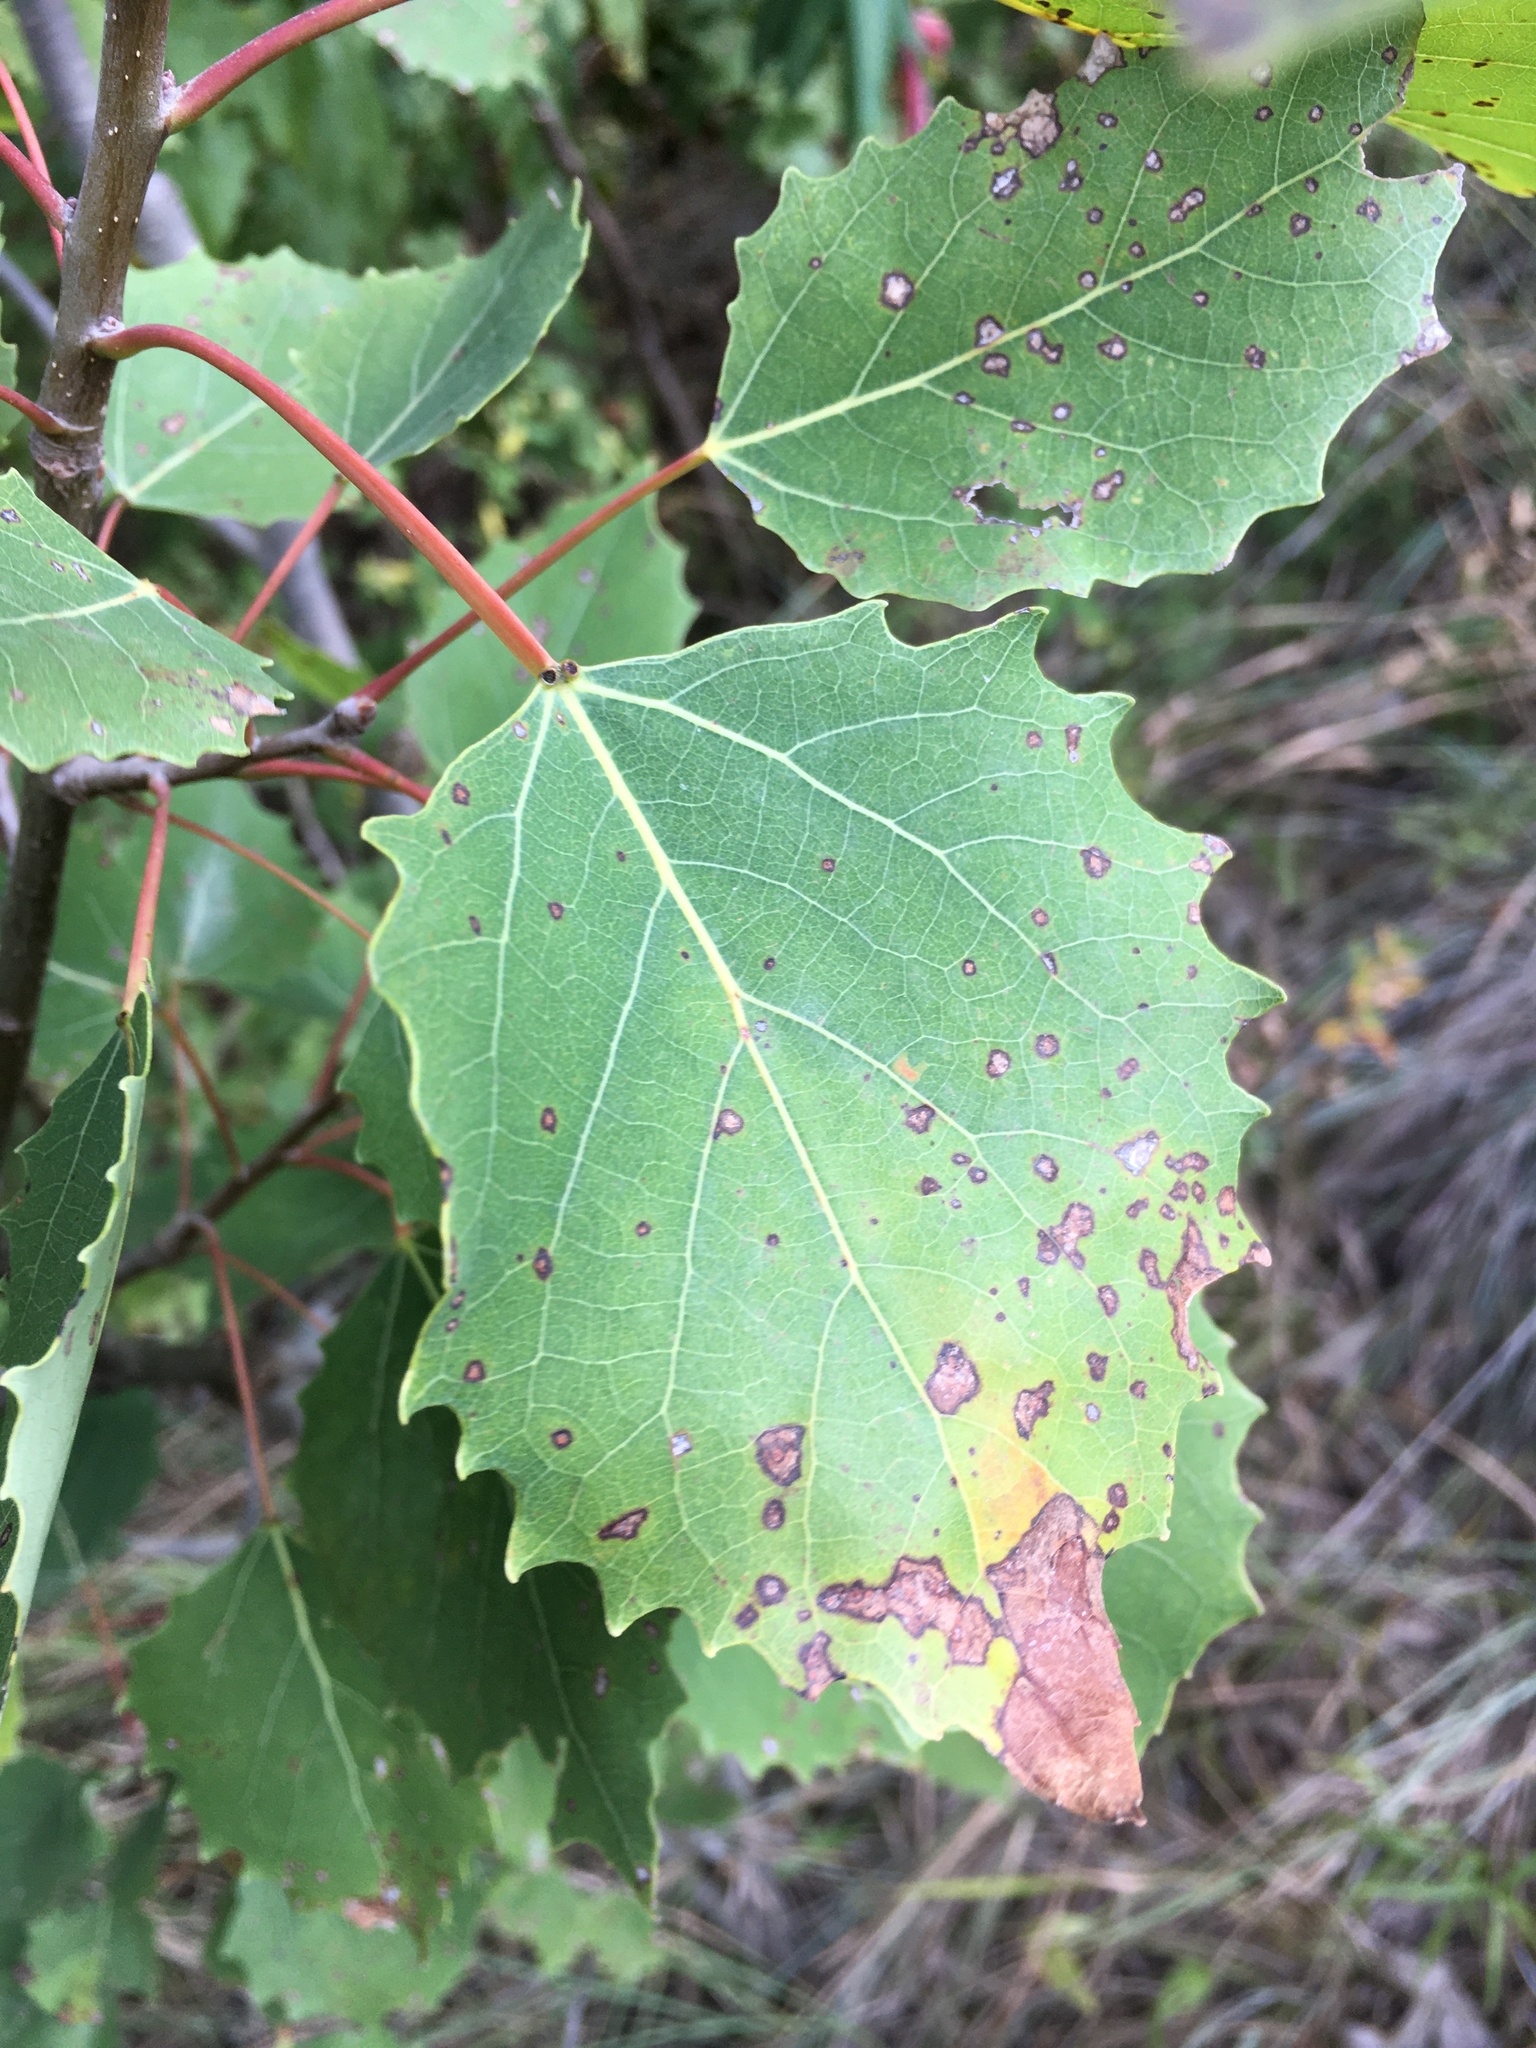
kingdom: Plantae
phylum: Tracheophyta
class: Magnoliopsida
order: Malpighiales
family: Salicaceae
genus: Populus
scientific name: Populus grandidentata
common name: Bigtooth aspen
